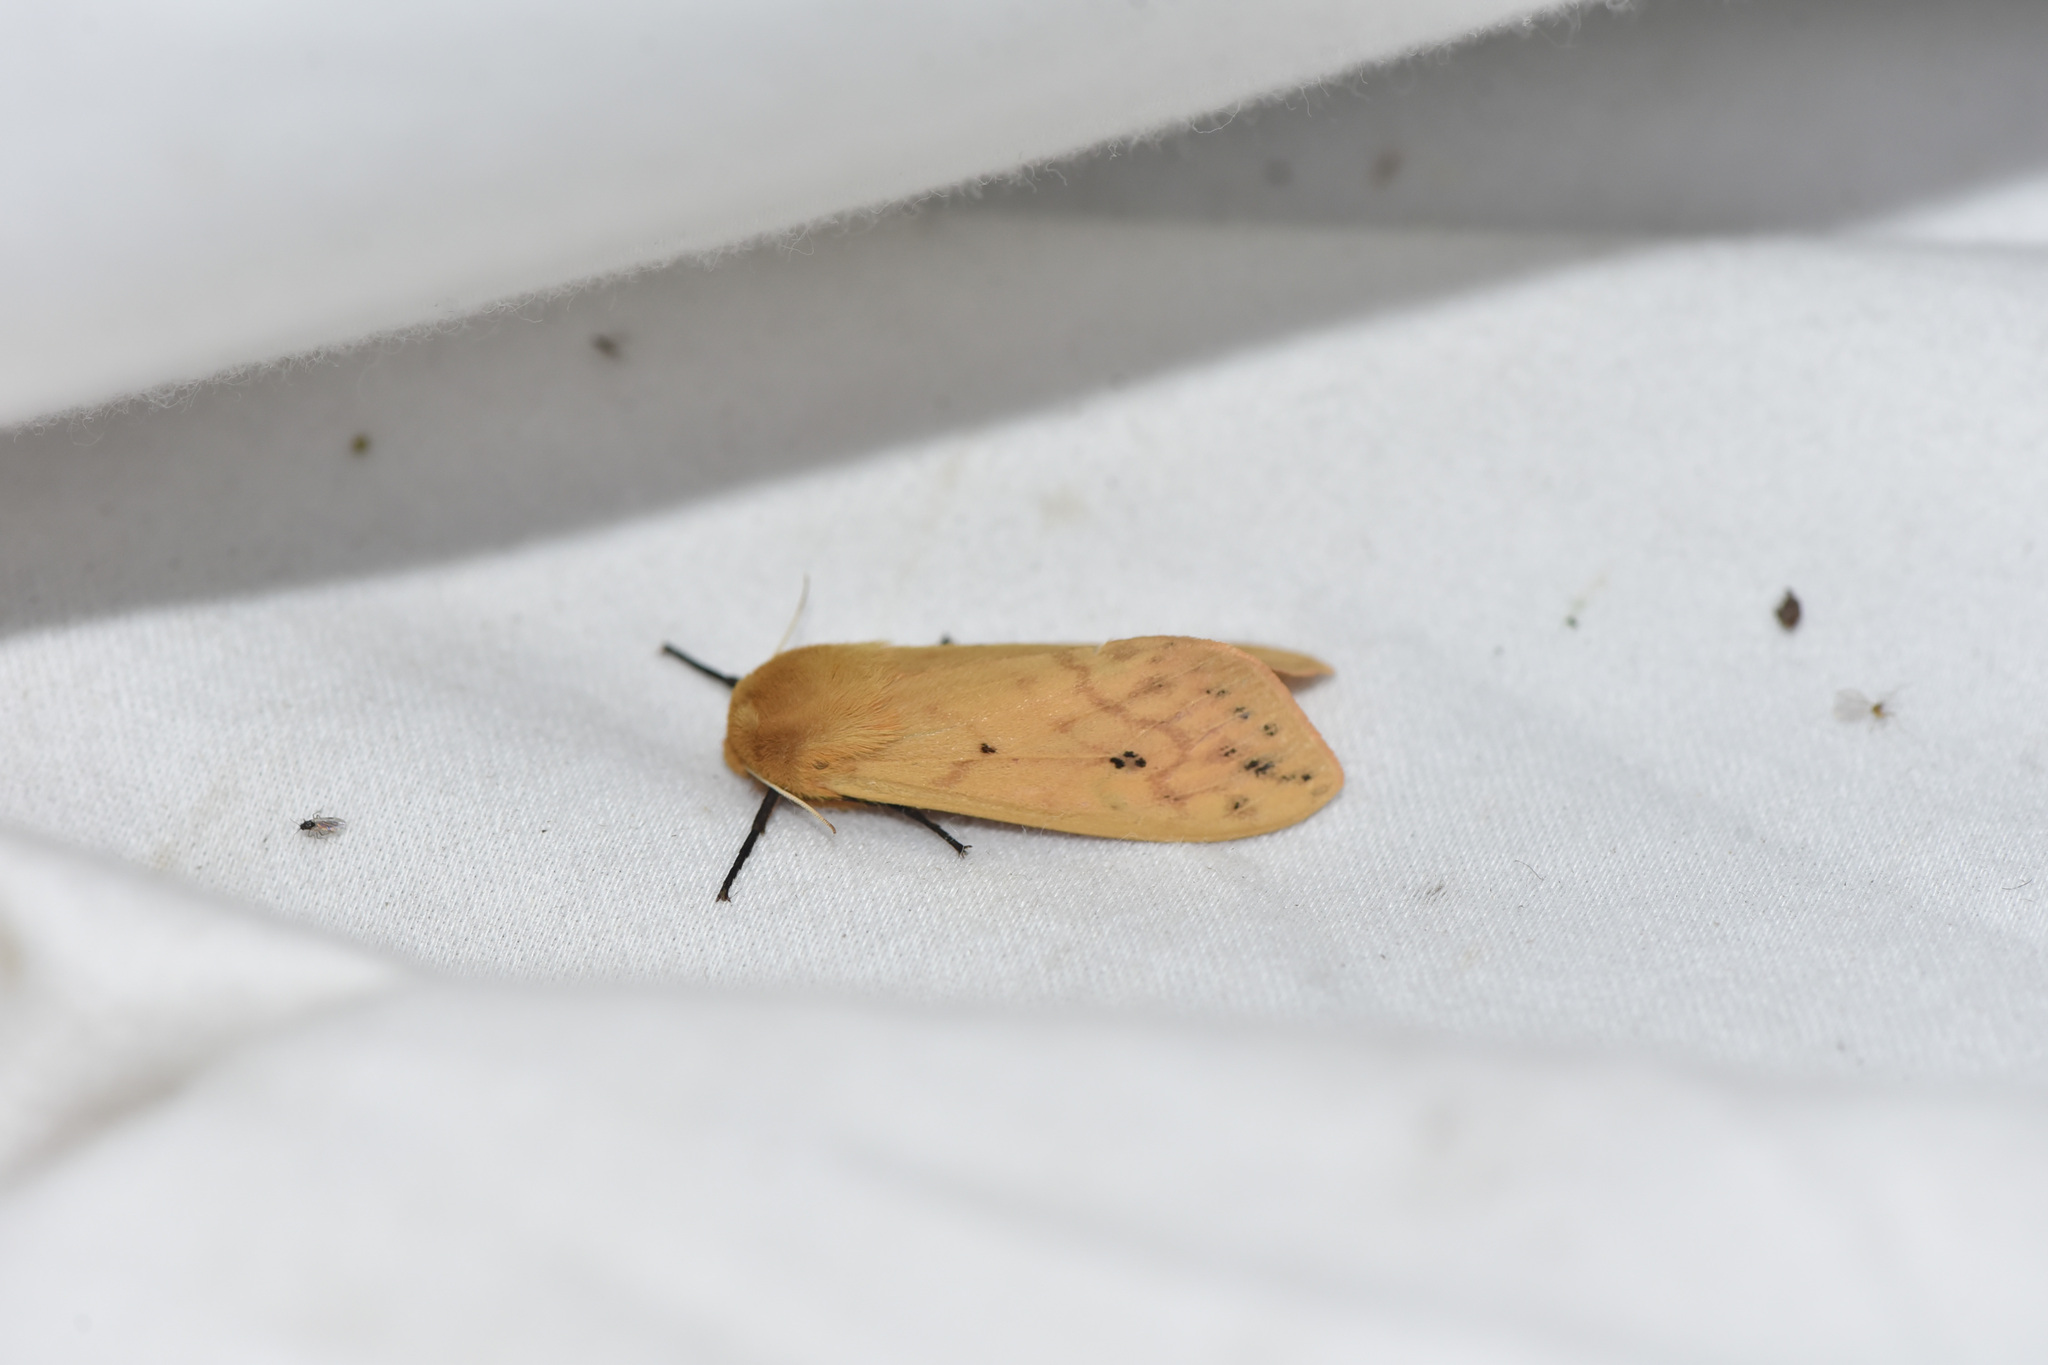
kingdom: Animalia
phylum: Arthropoda
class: Insecta
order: Lepidoptera
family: Erebidae
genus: Pyrrharctia
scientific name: Pyrrharctia isabella
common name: Isabella tiger moth
